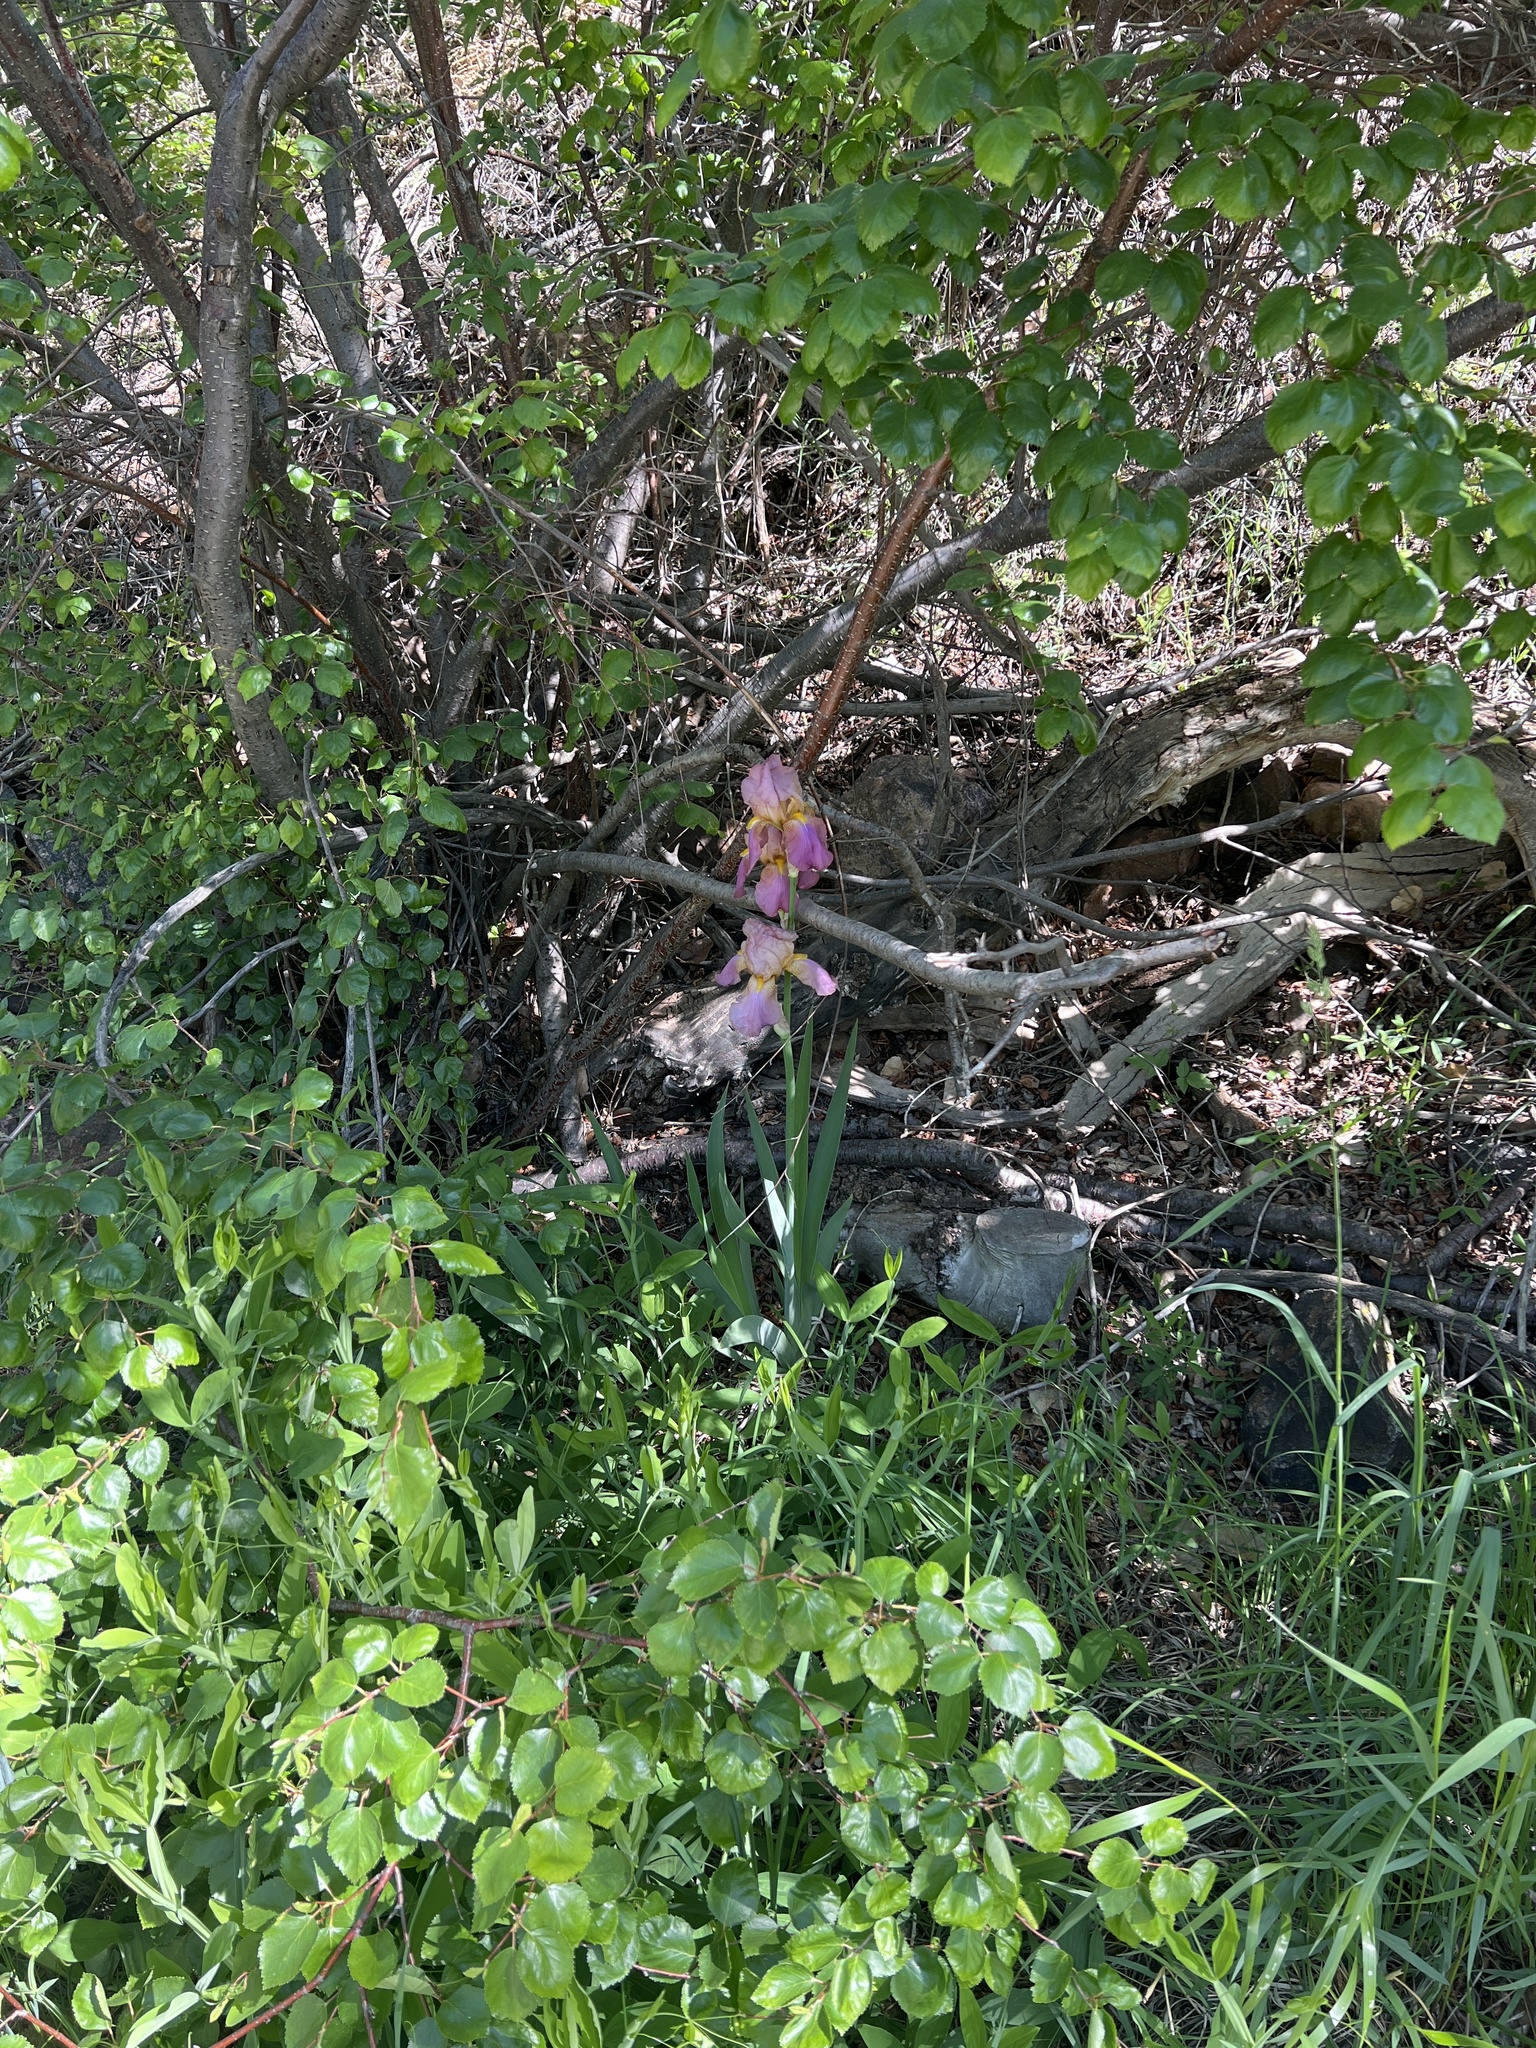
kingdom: Plantae
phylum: Tracheophyta
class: Liliopsida
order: Asparagales
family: Iridaceae
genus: Iris
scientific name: Iris hybrida
